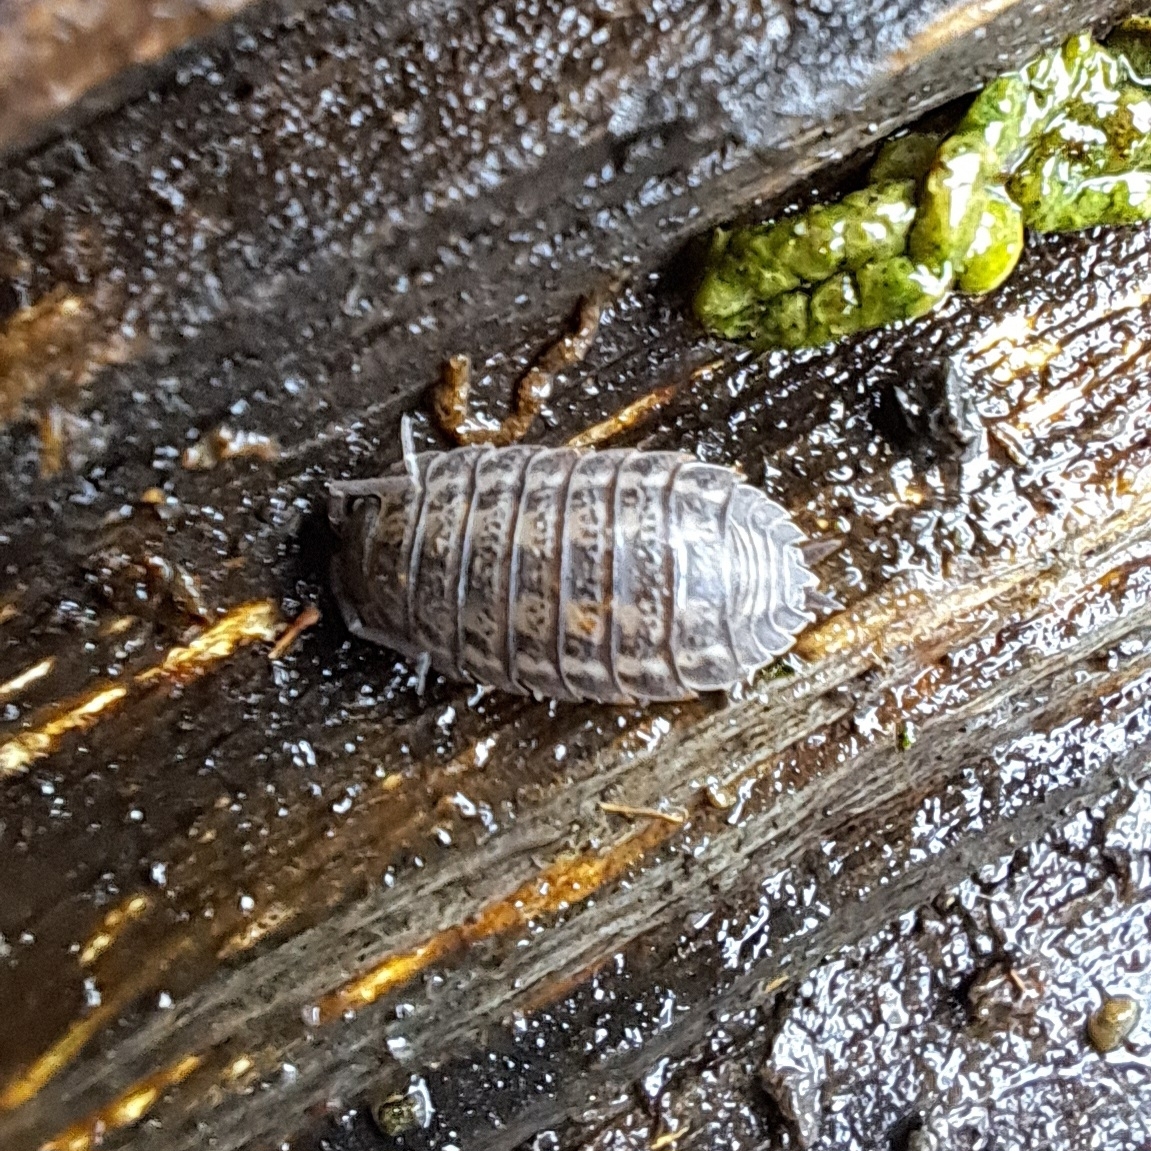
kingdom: Animalia
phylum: Arthropoda
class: Malacostraca
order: Isopoda
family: Trachelipodidae
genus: Trachelipus
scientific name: Trachelipus rathkii
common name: Isopod
